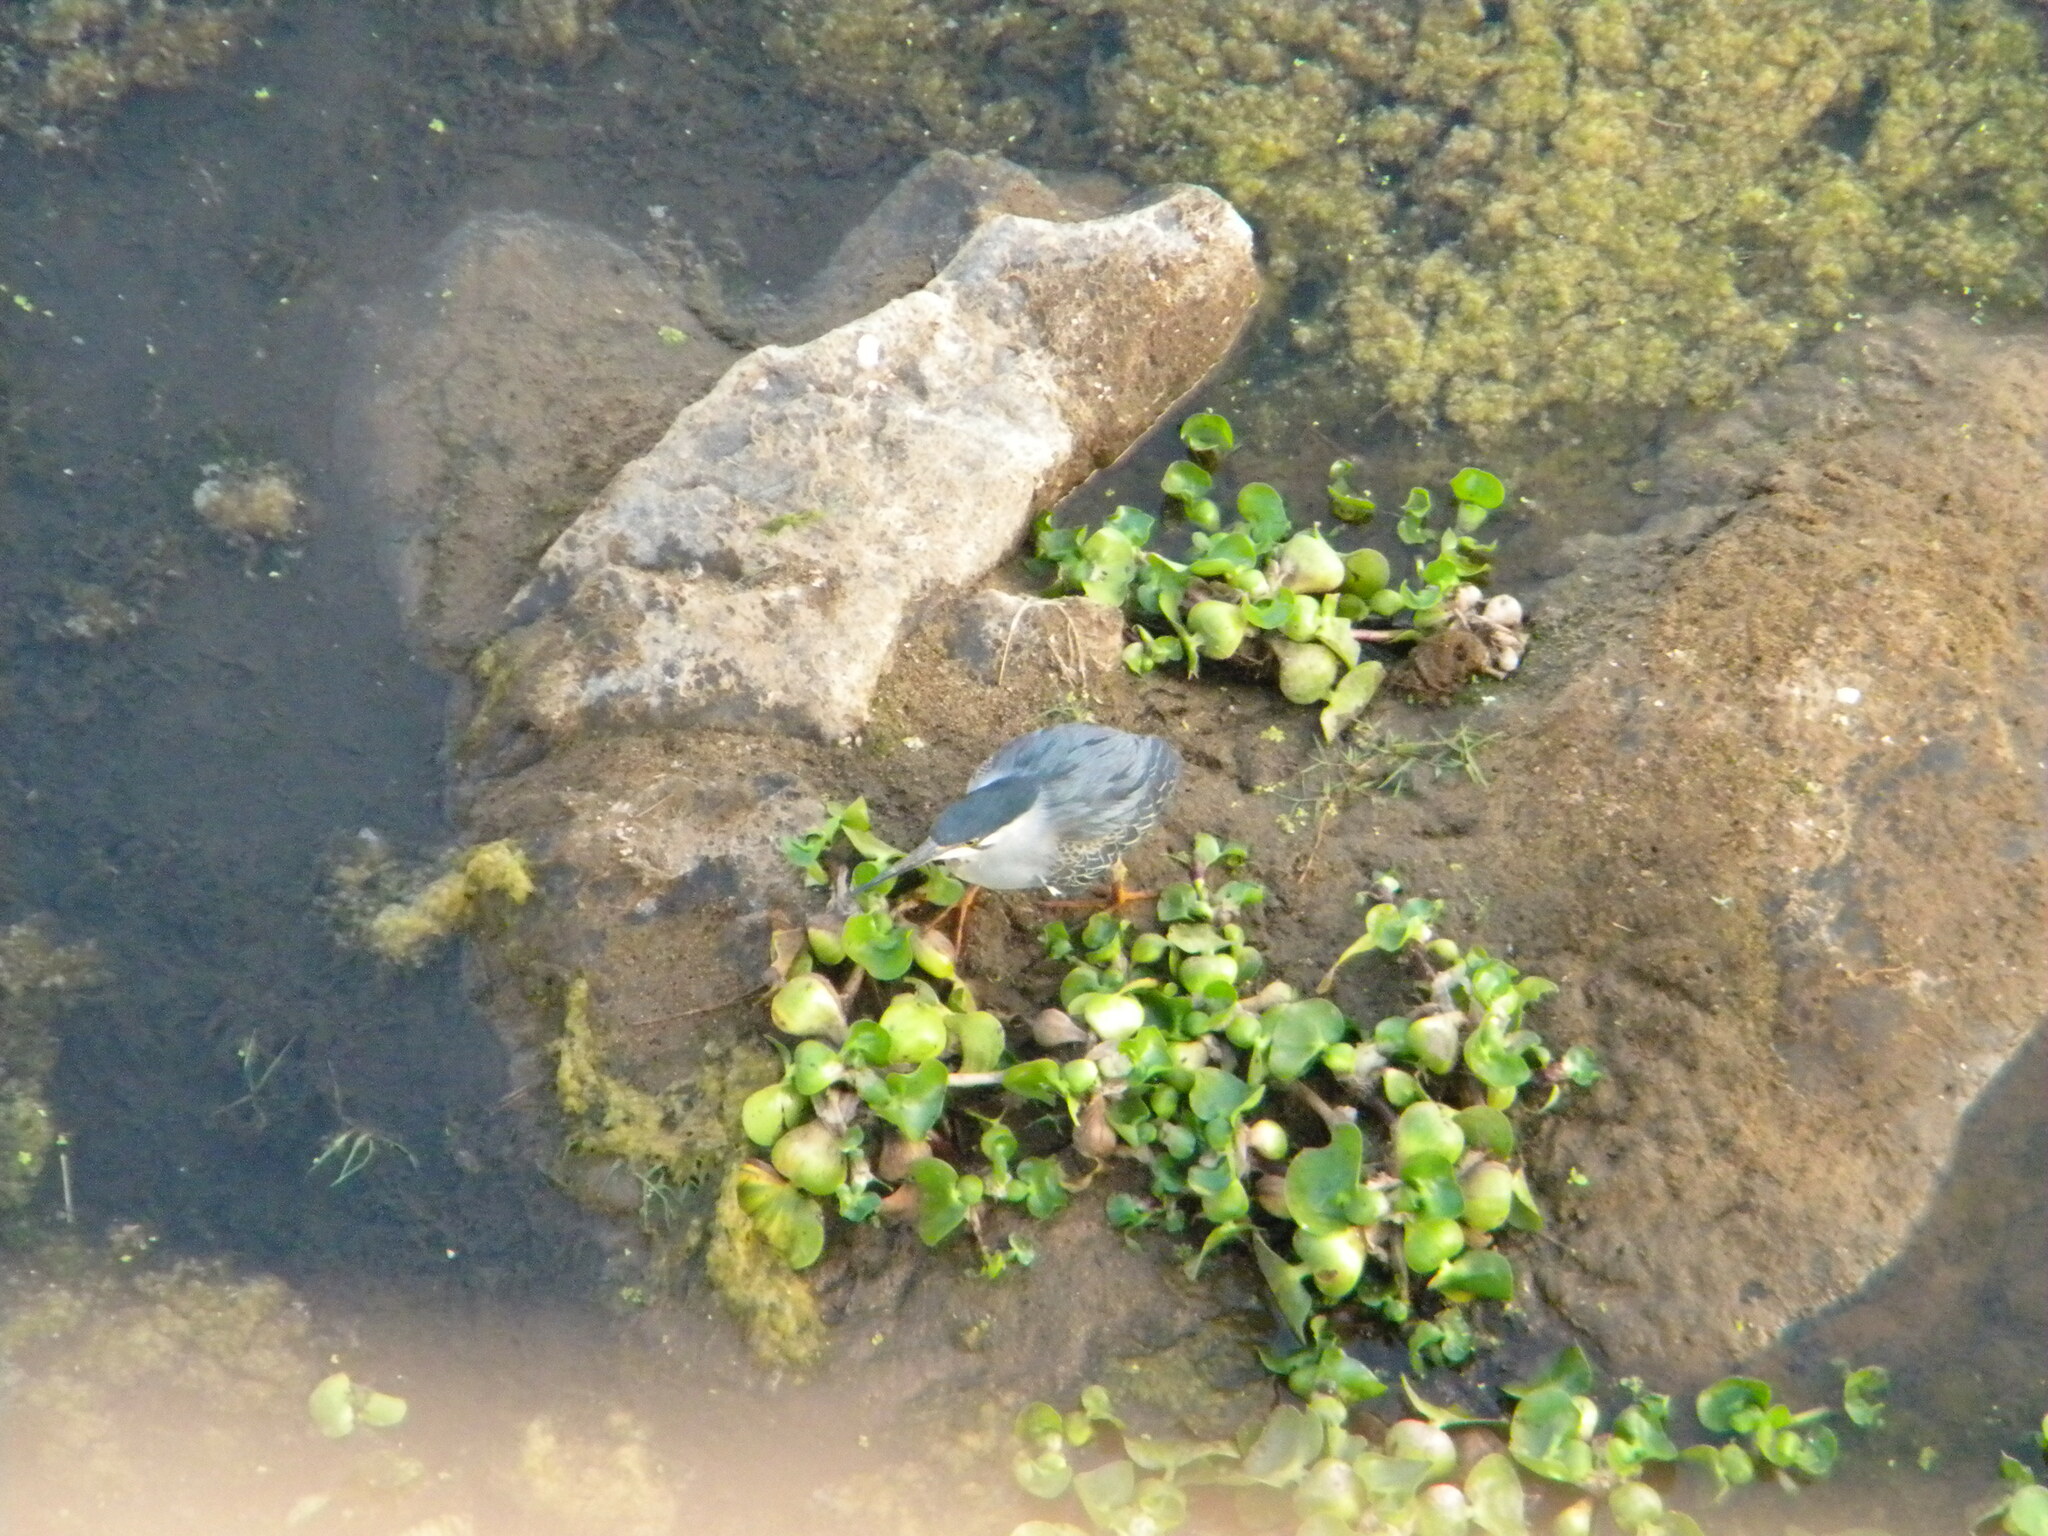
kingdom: Animalia
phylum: Chordata
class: Aves
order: Pelecaniformes
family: Ardeidae
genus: Butorides
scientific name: Butorides striata
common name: Striated heron
